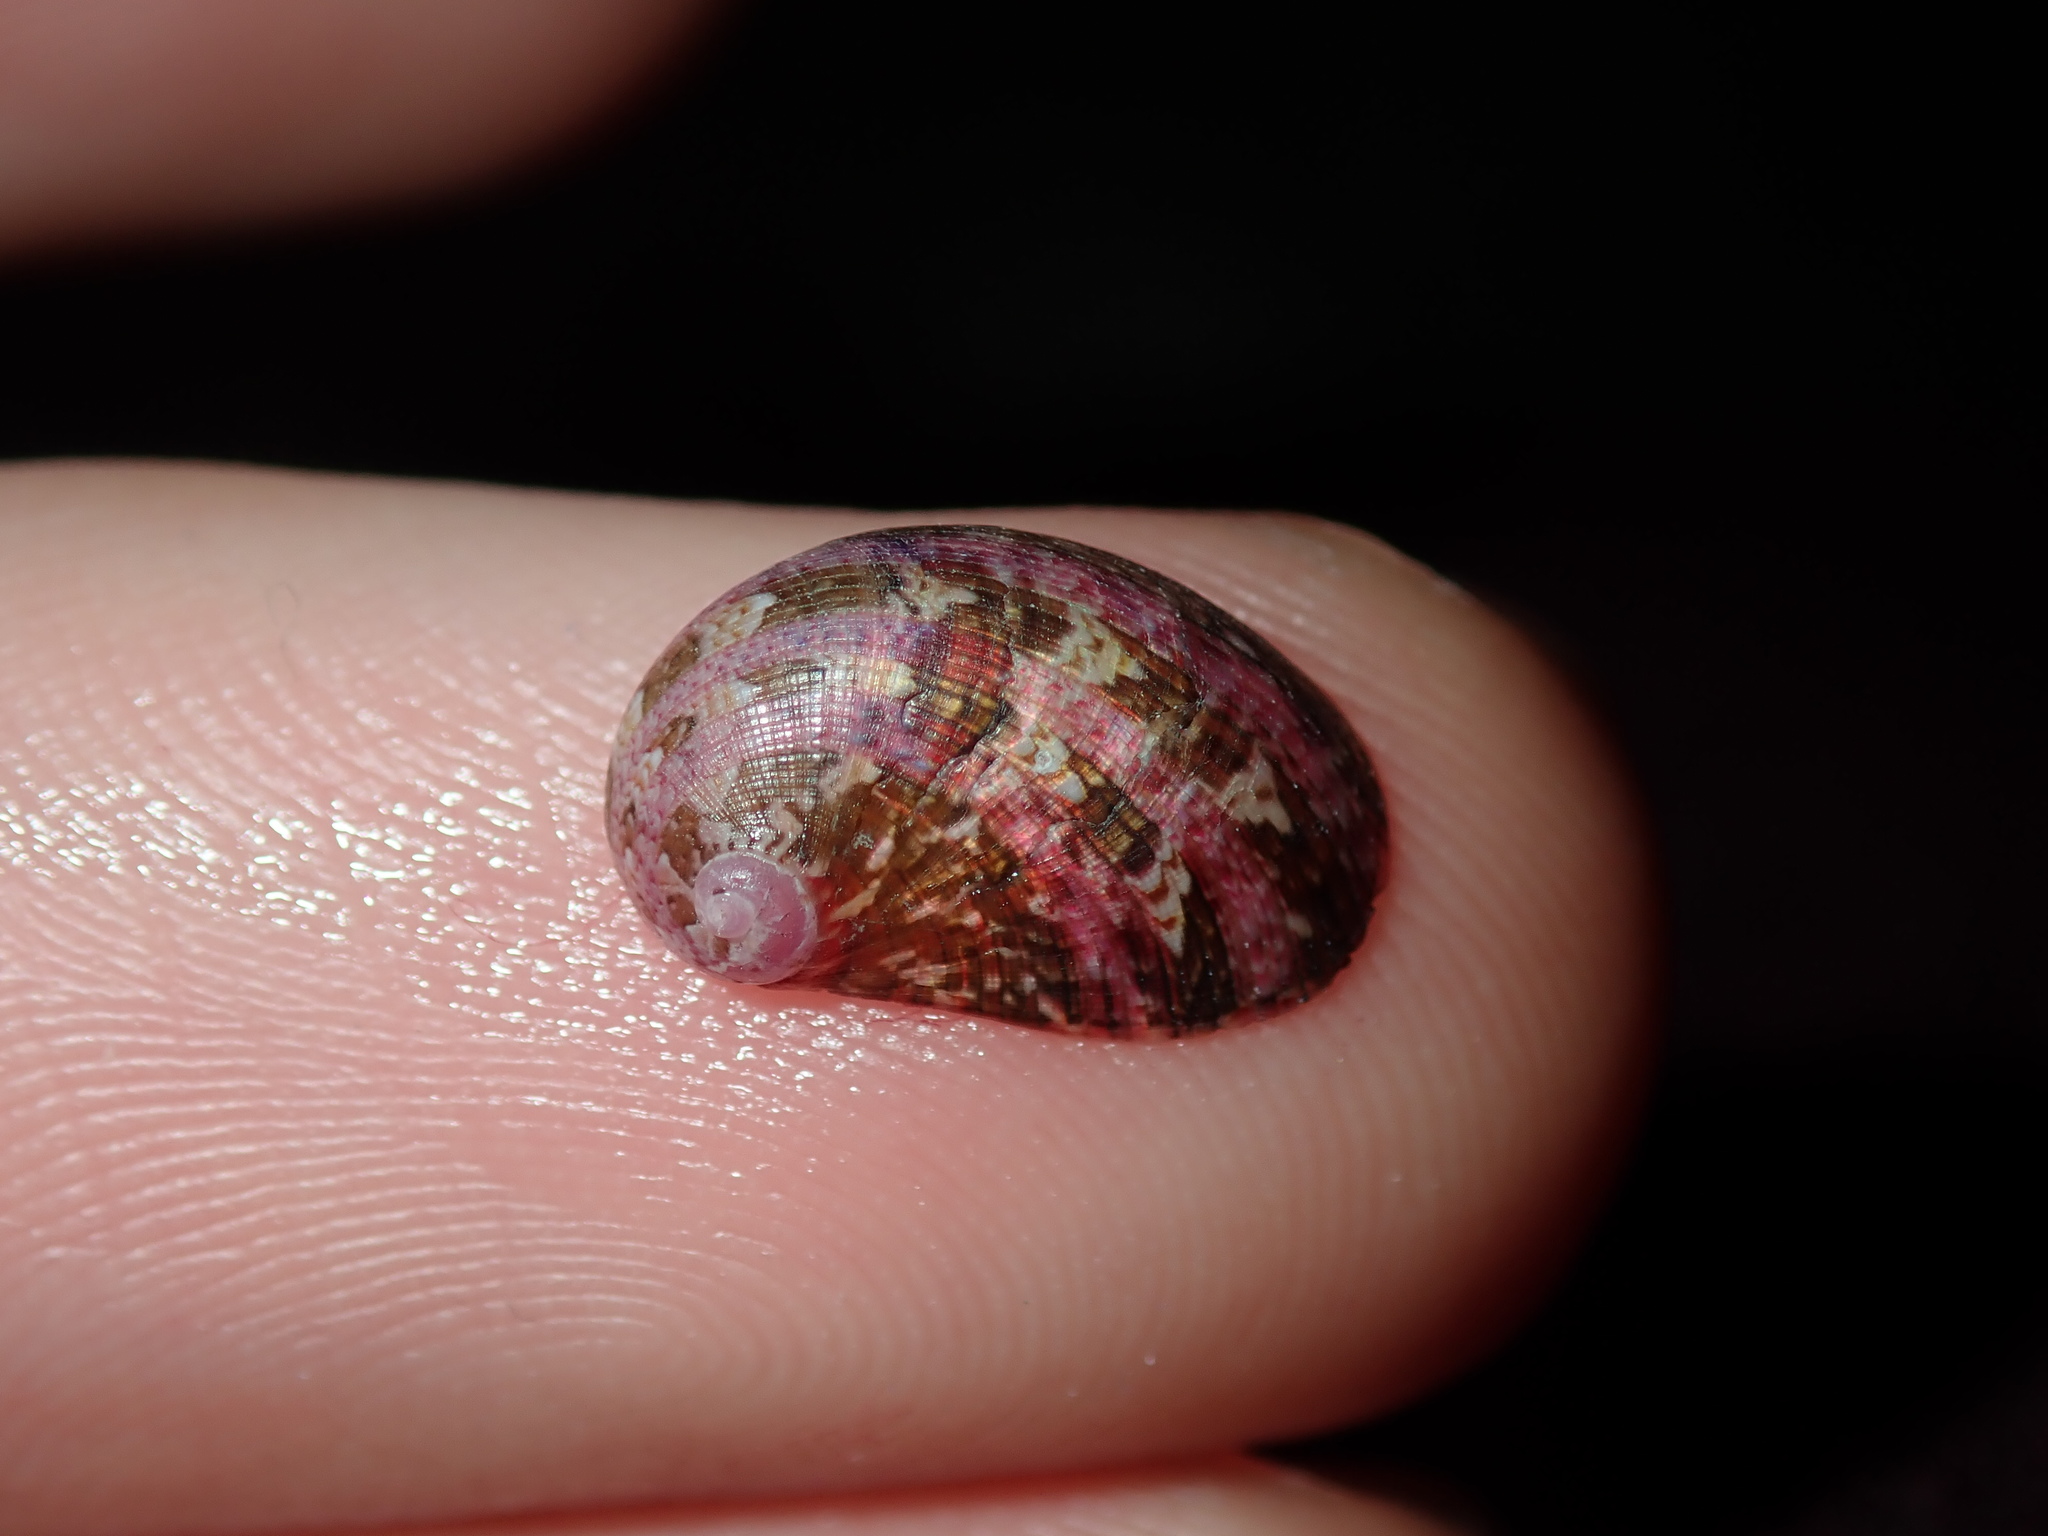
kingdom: Animalia
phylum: Mollusca
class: Gastropoda
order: Trochida
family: Trochidae
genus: Stomatella
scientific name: Stomatella impertusa
